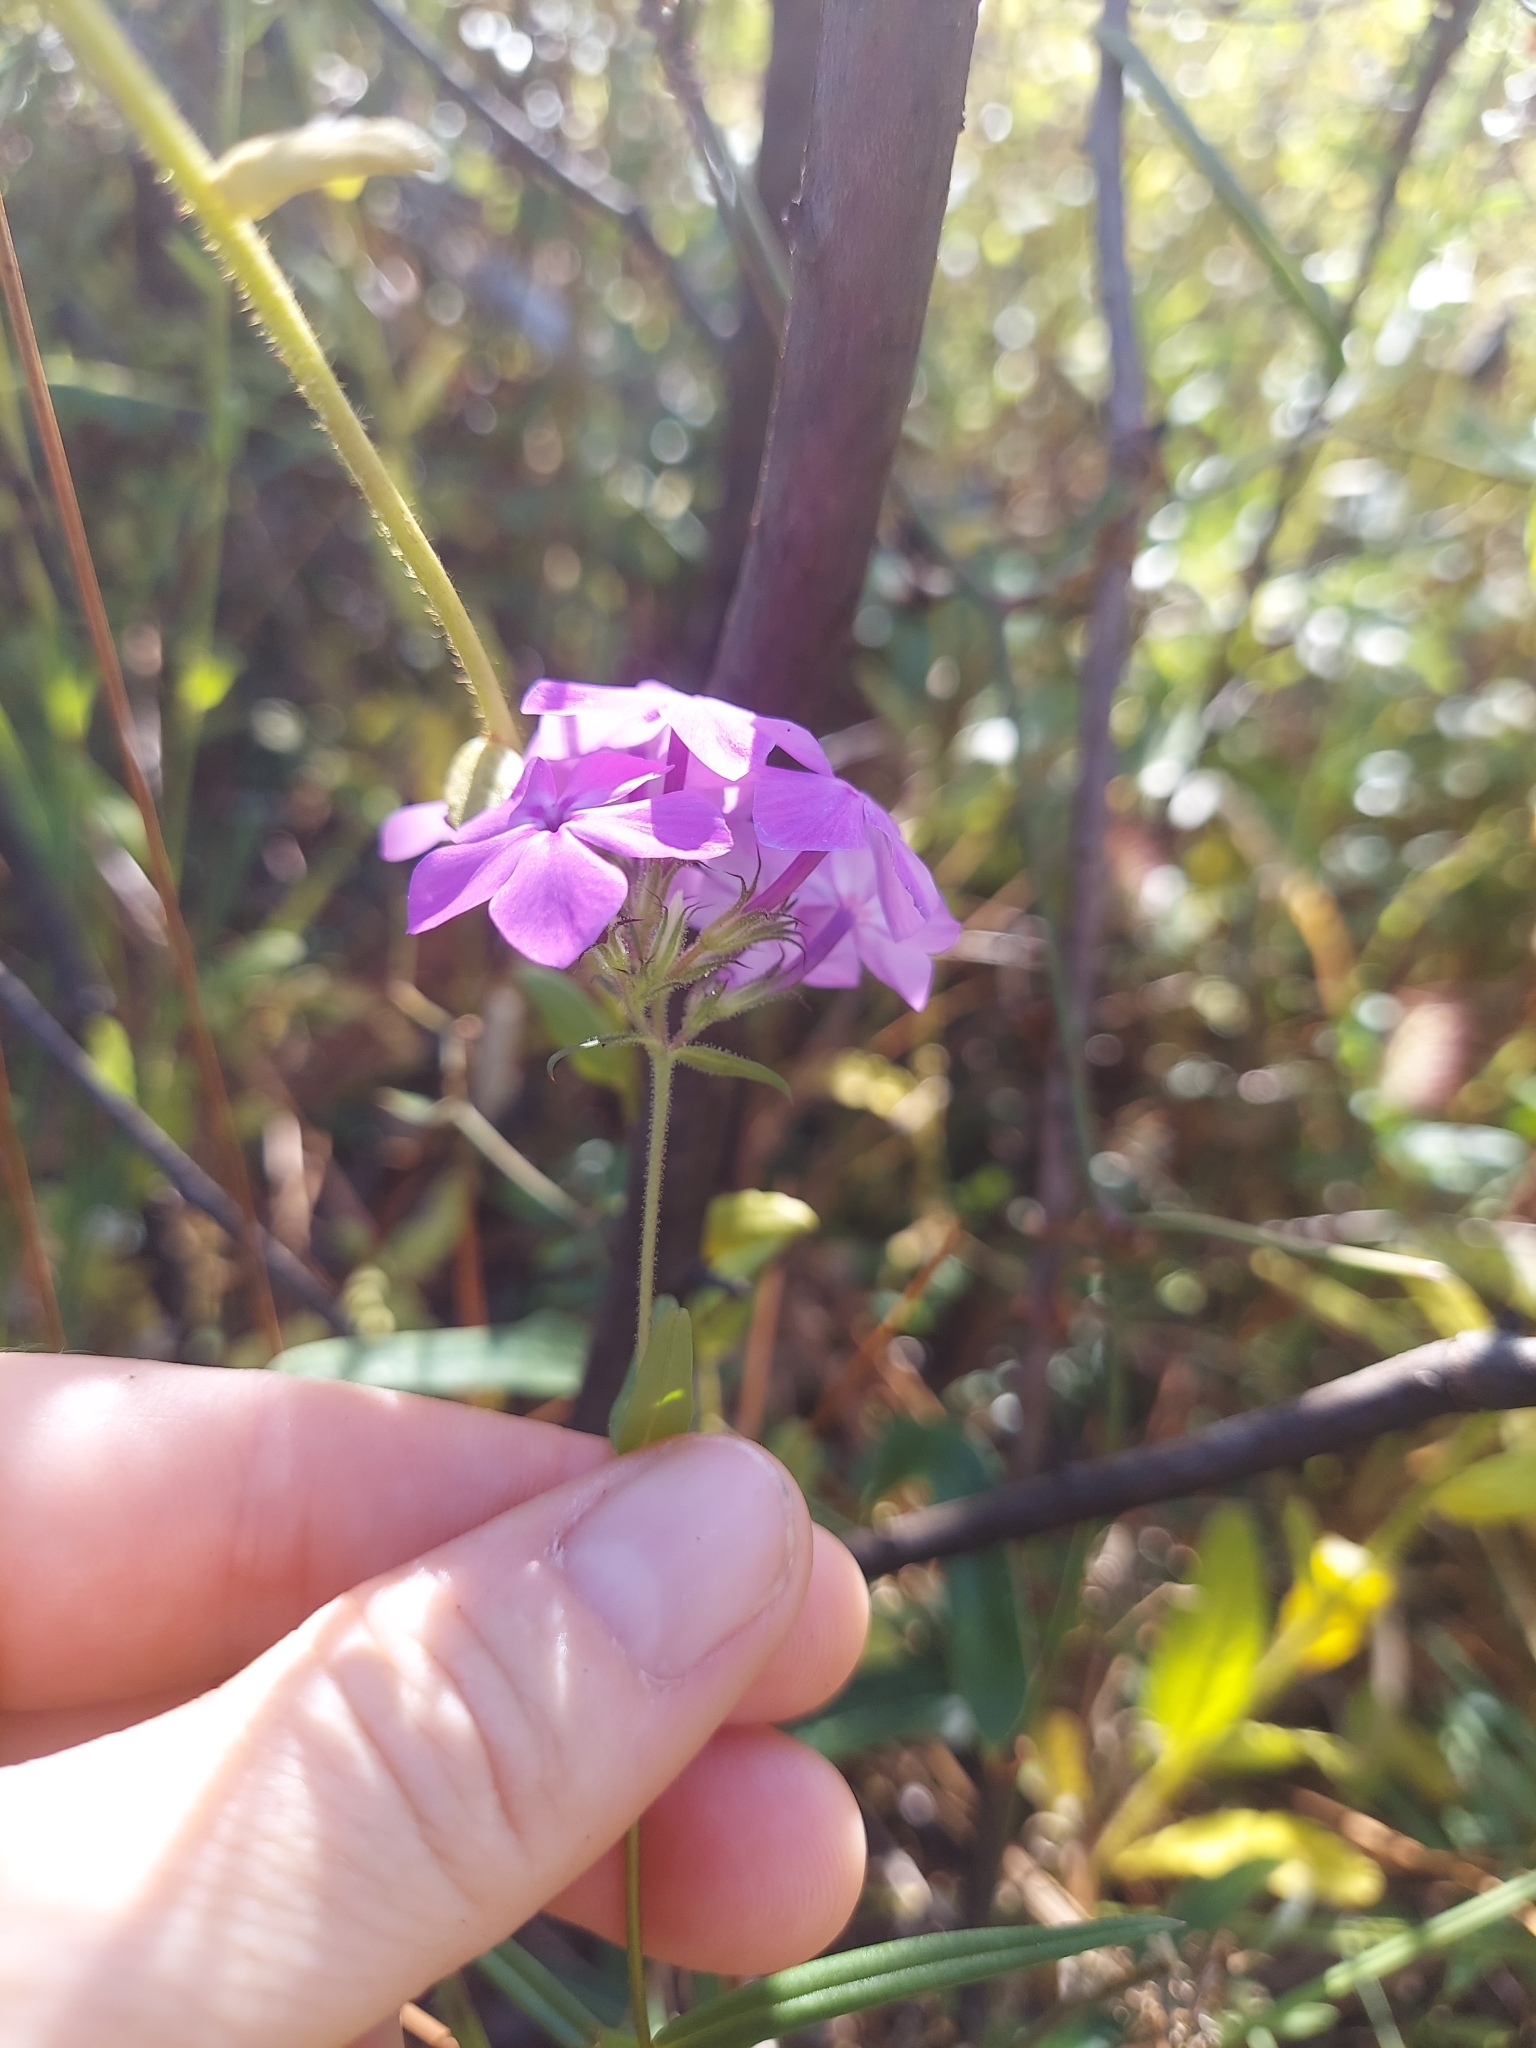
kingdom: Plantae
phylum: Tracheophyta
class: Magnoliopsida
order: Ericales
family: Polemoniaceae
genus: Phlox
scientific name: Phlox pilosa
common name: Prairie phlox
